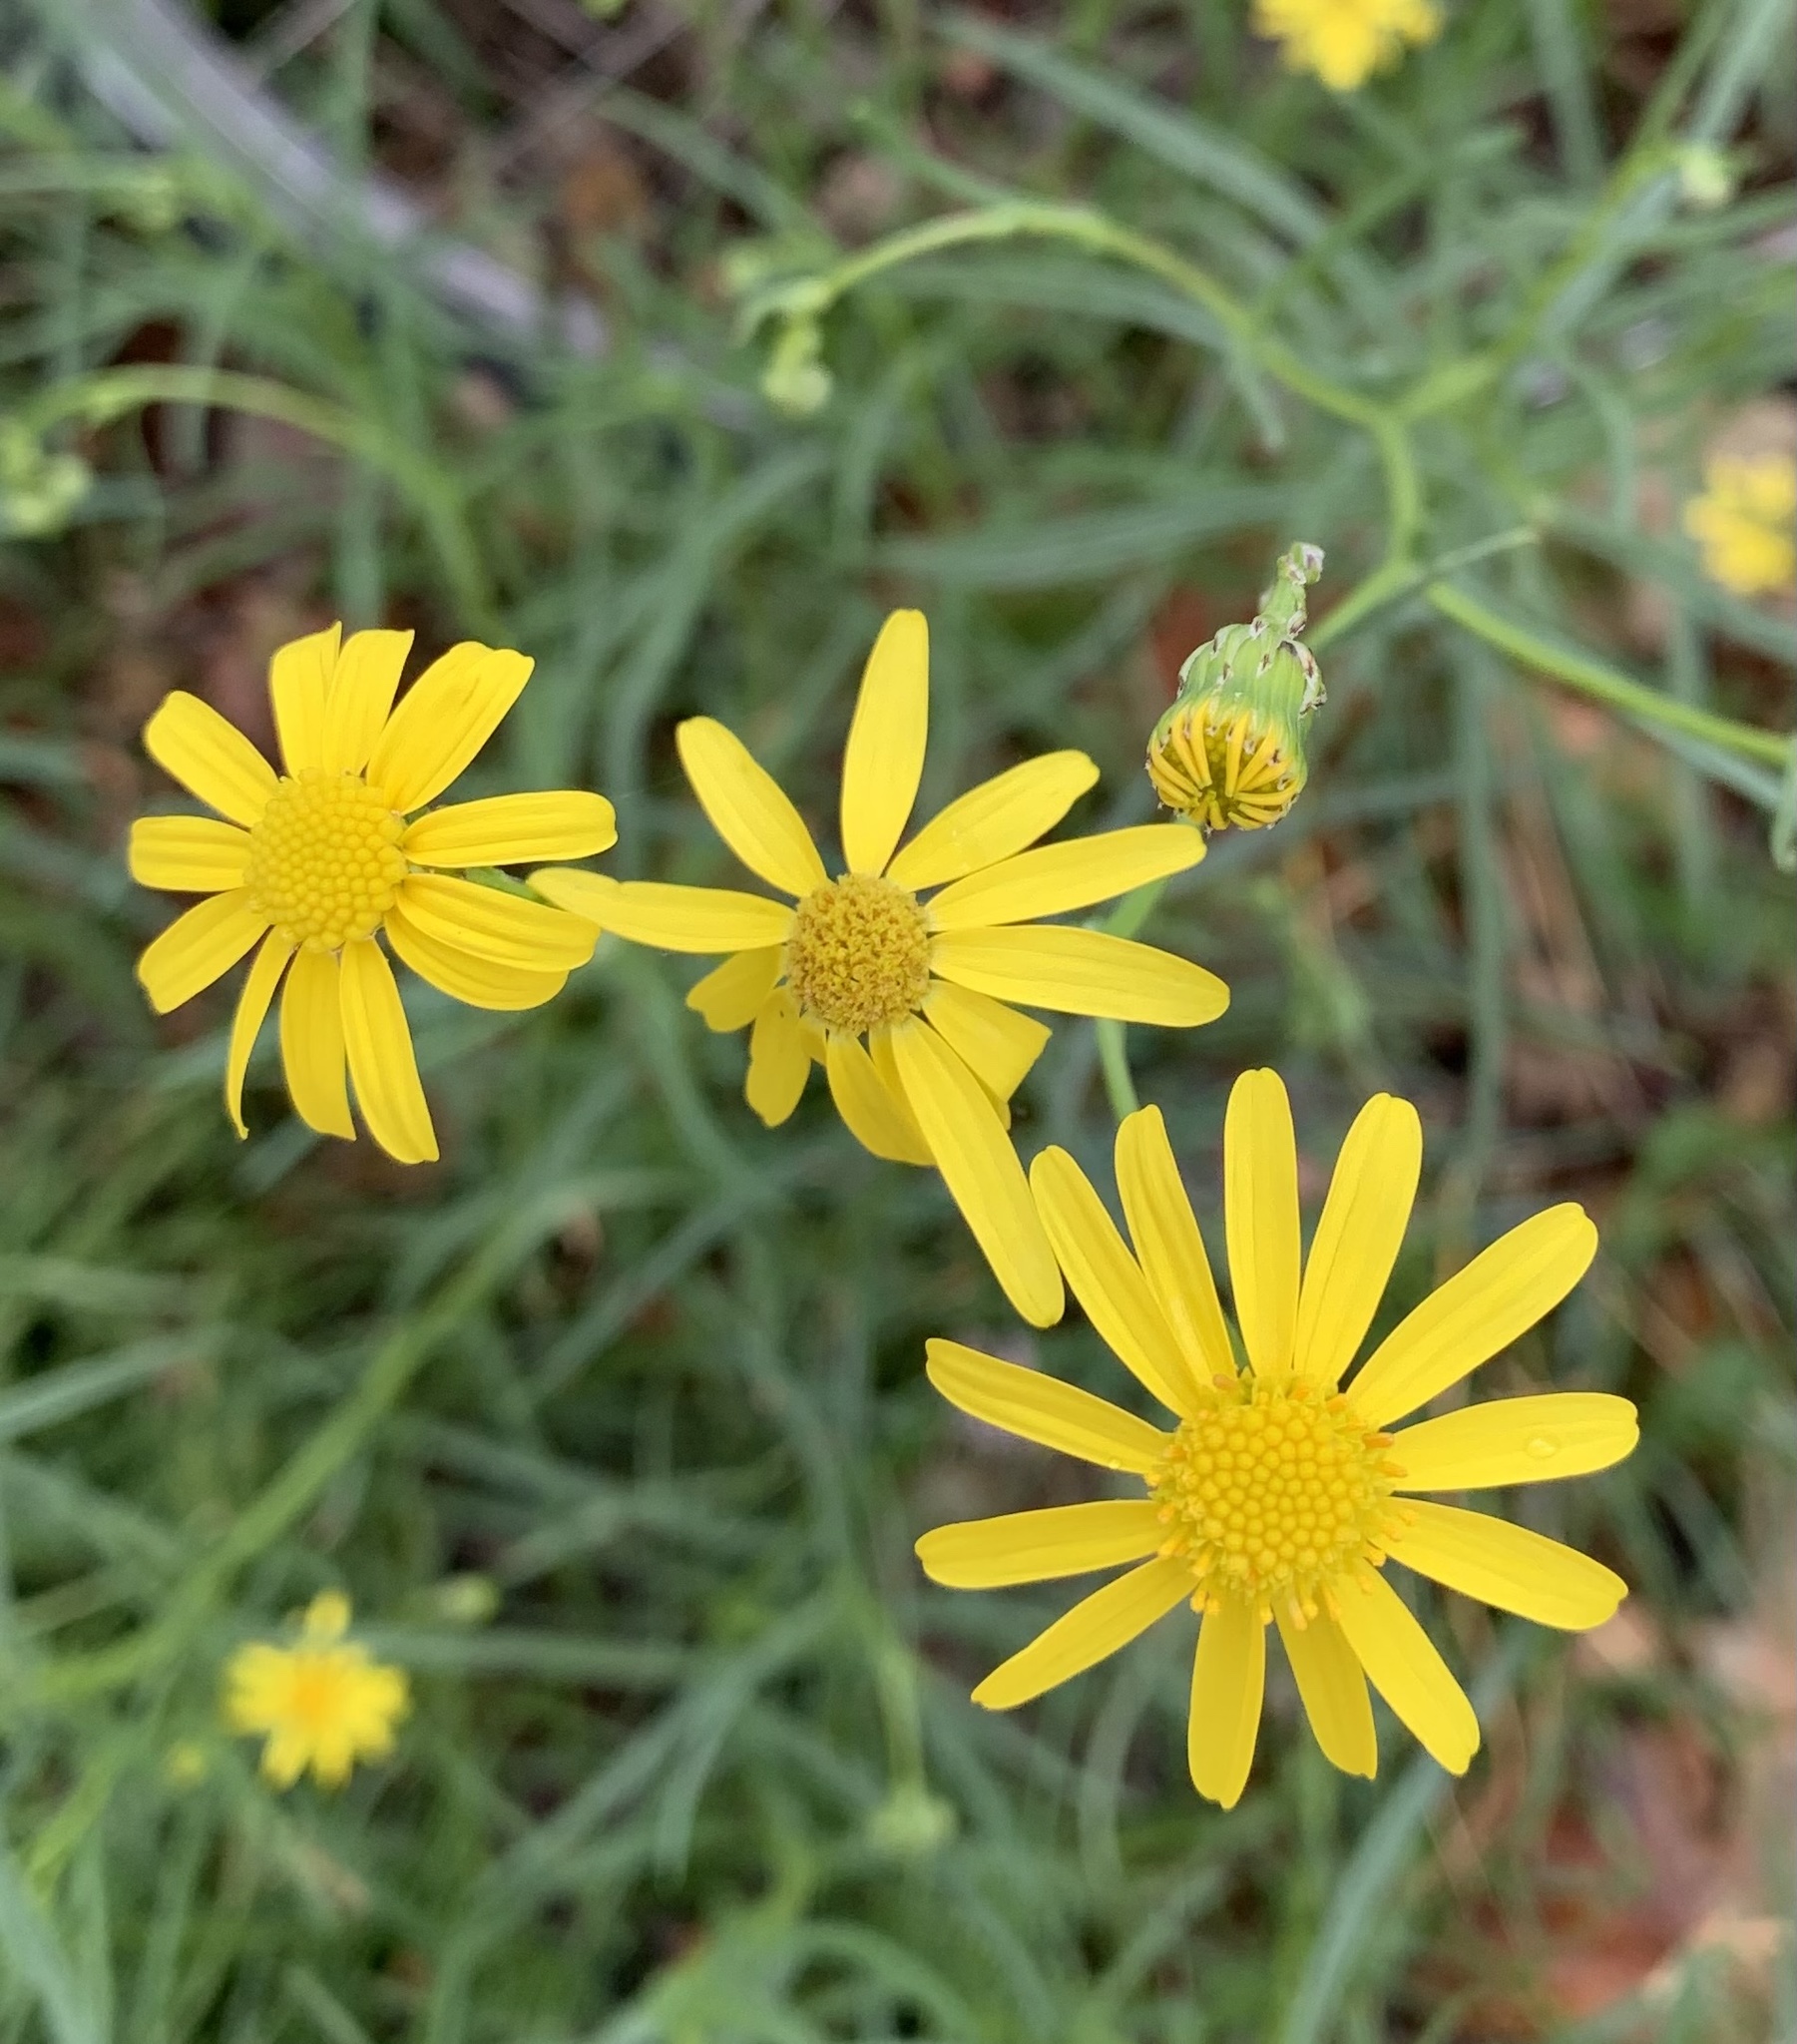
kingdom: Plantae
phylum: Tracheophyta
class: Magnoliopsida
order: Asterales
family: Asteraceae
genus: Senecio
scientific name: Senecio inaequidens
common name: Narrow-leaved ragwort
